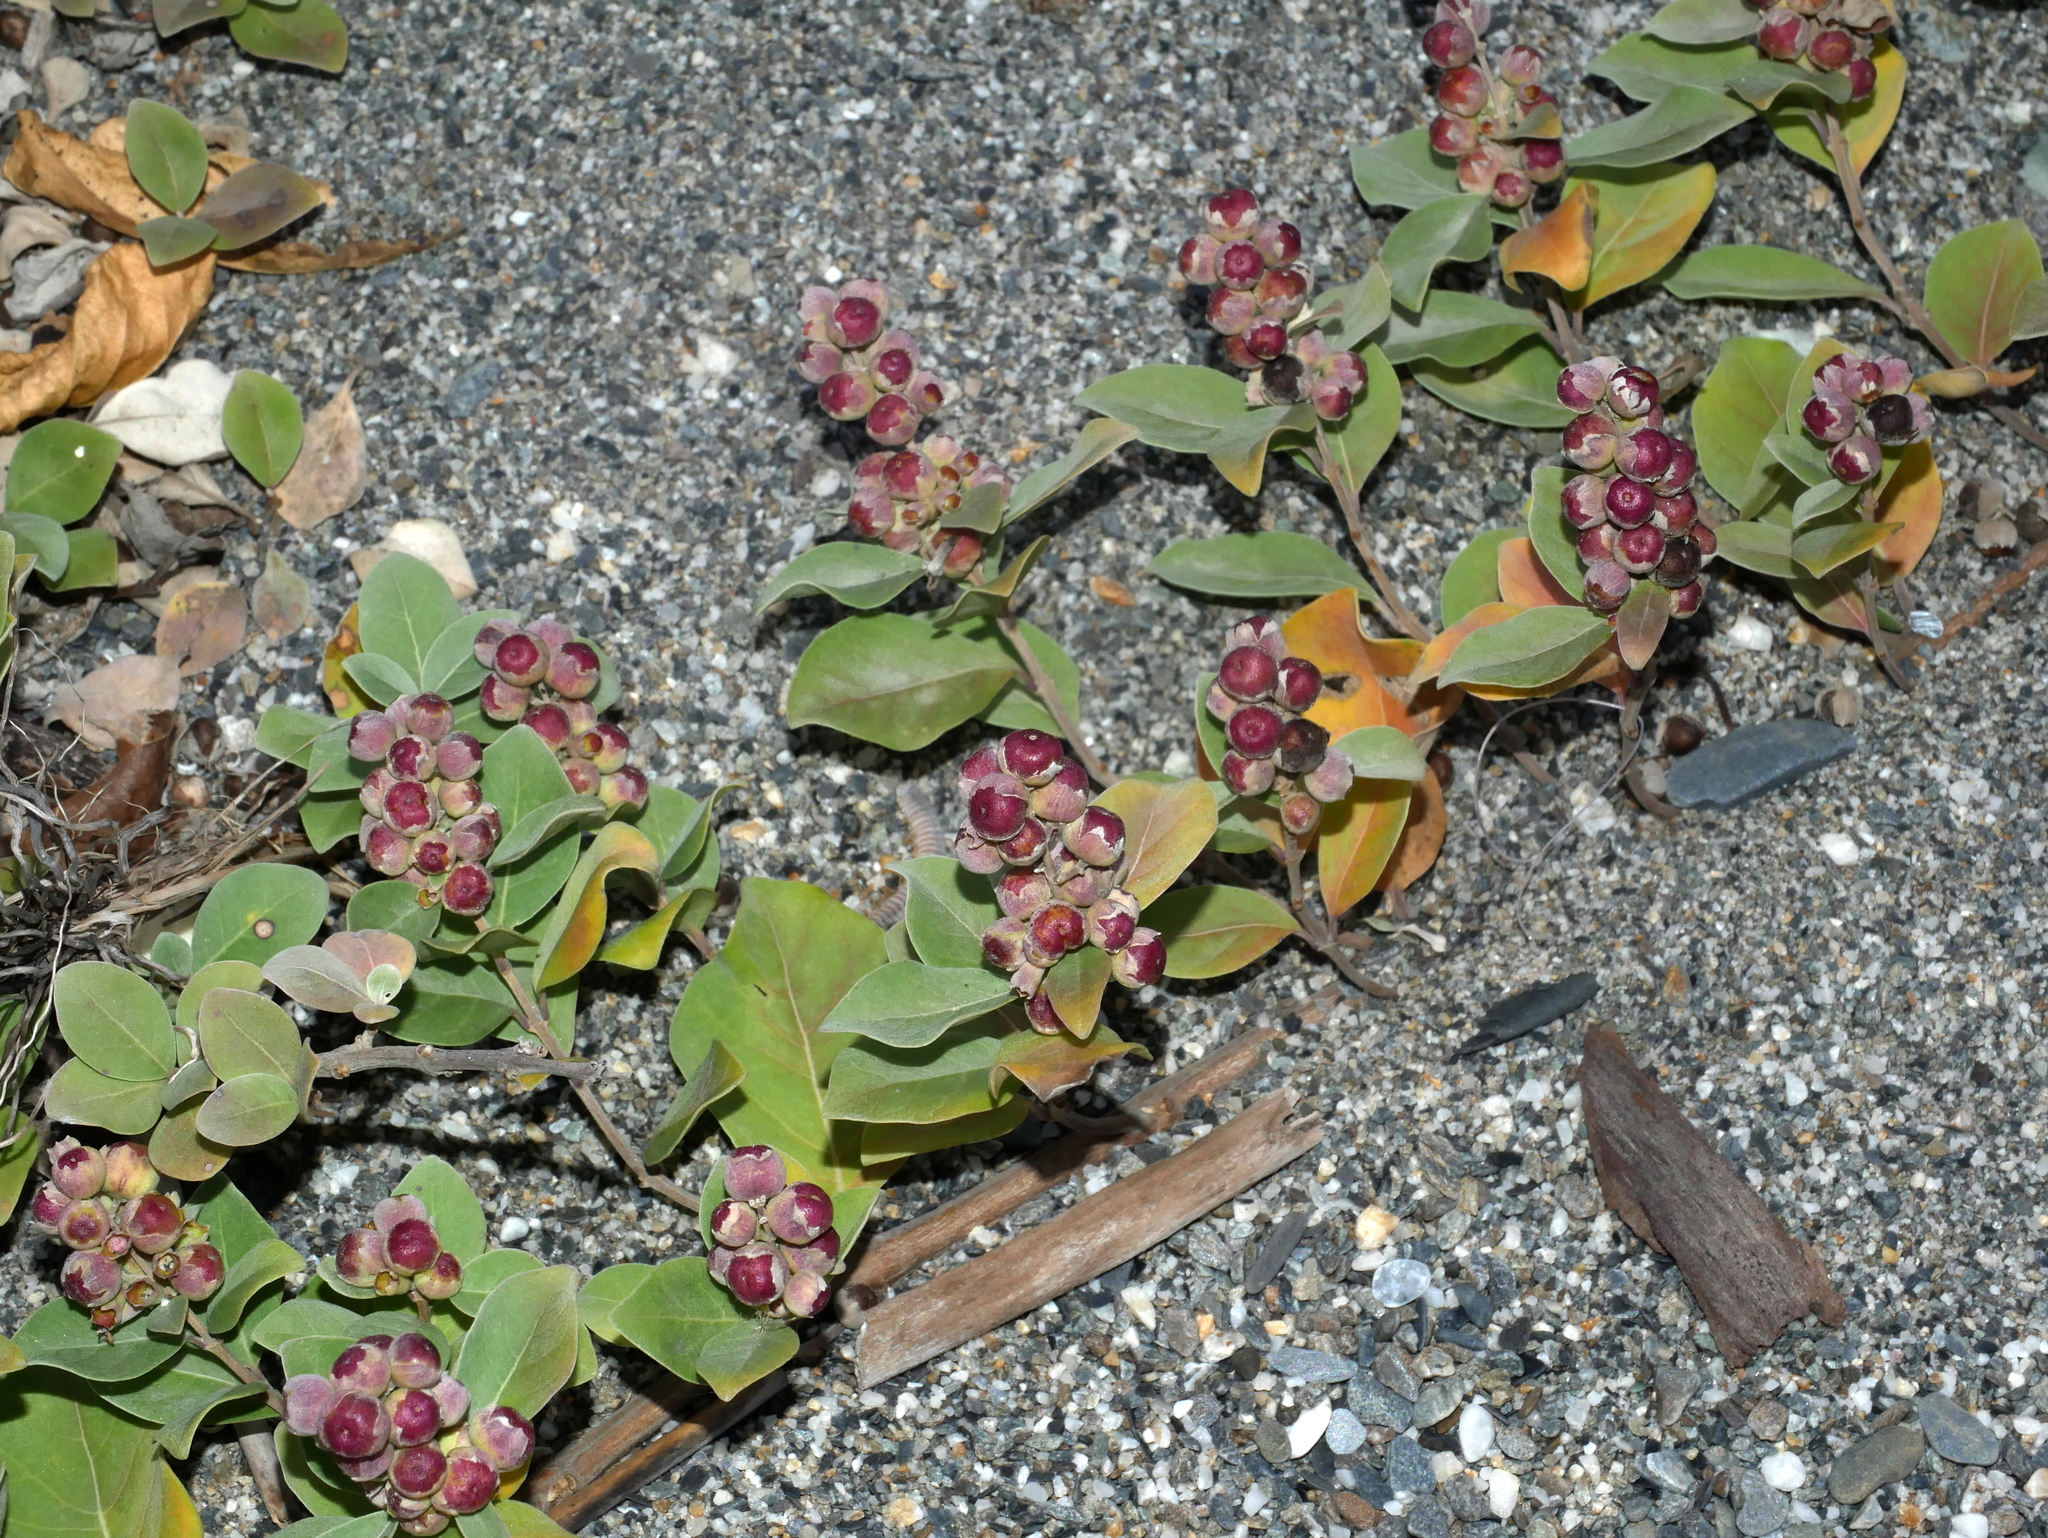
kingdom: Plantae
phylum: Tracheophyta
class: Magnoliopsida
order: Lamiales
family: Lamiaceae
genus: Vitex
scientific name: Vitex rotundifolia
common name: Beach vitex
